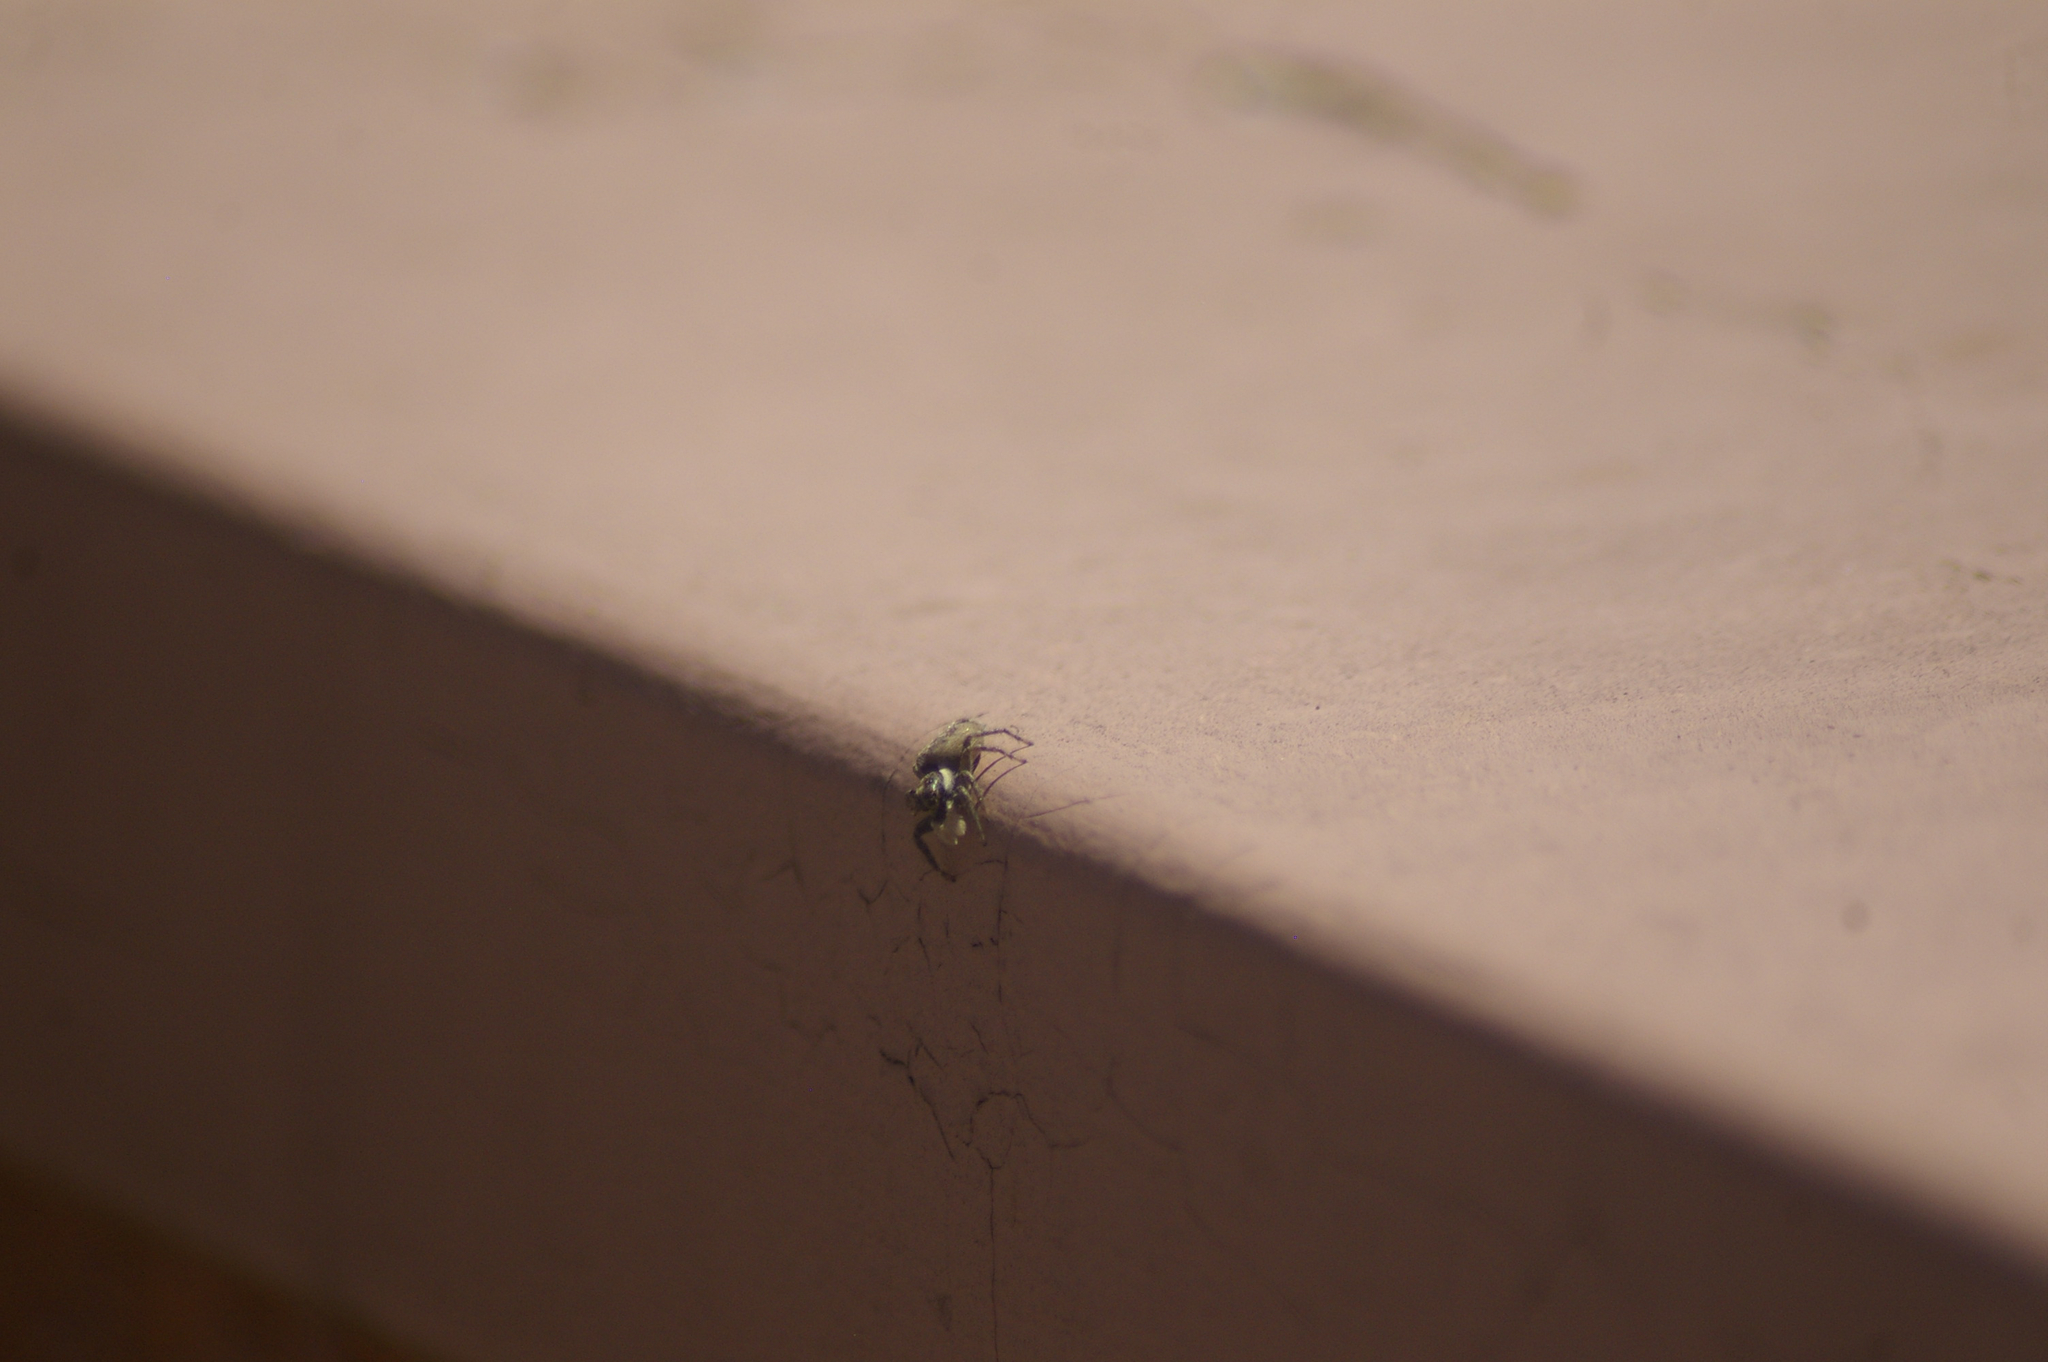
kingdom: Animalia
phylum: Arthropoda
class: Arachnida
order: Araneae
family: Salticidae
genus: Menemerus
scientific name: Menemerus semilimbatus
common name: Jumping spider
